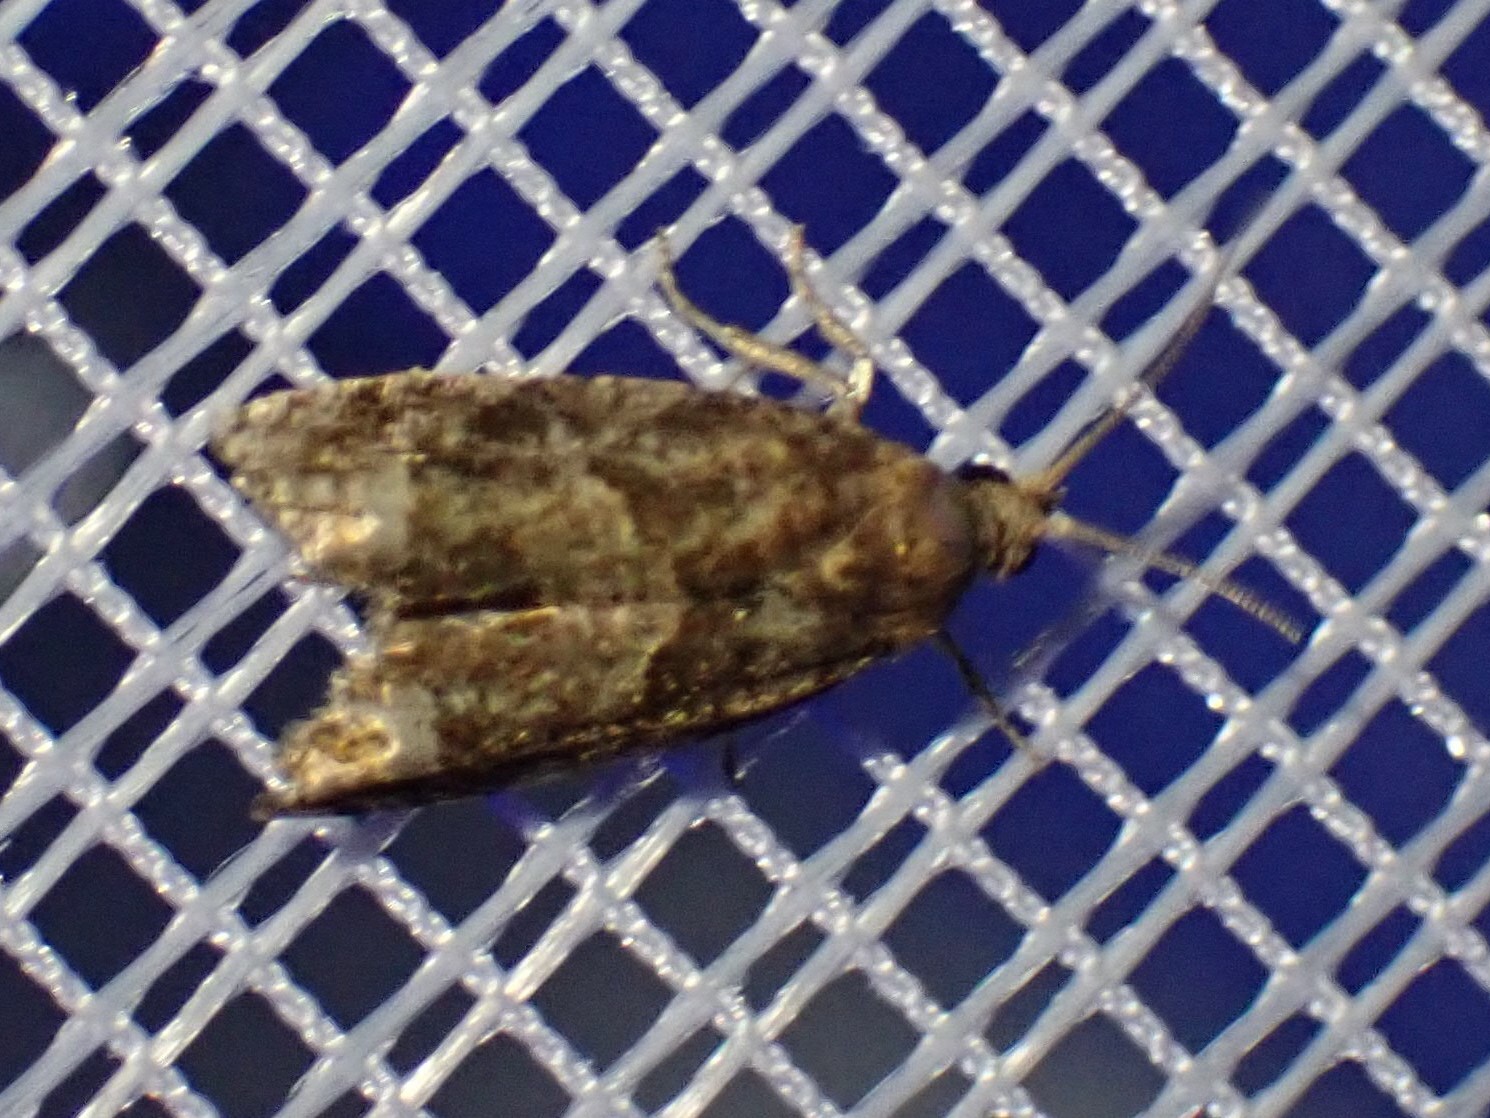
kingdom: Animalia
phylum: Arthropoda
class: Insecta
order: Lepidoptera
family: Tortricidae
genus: Argyrotaenia
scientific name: Argyrotaenia velutinana
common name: Red-banded leafroller moth
